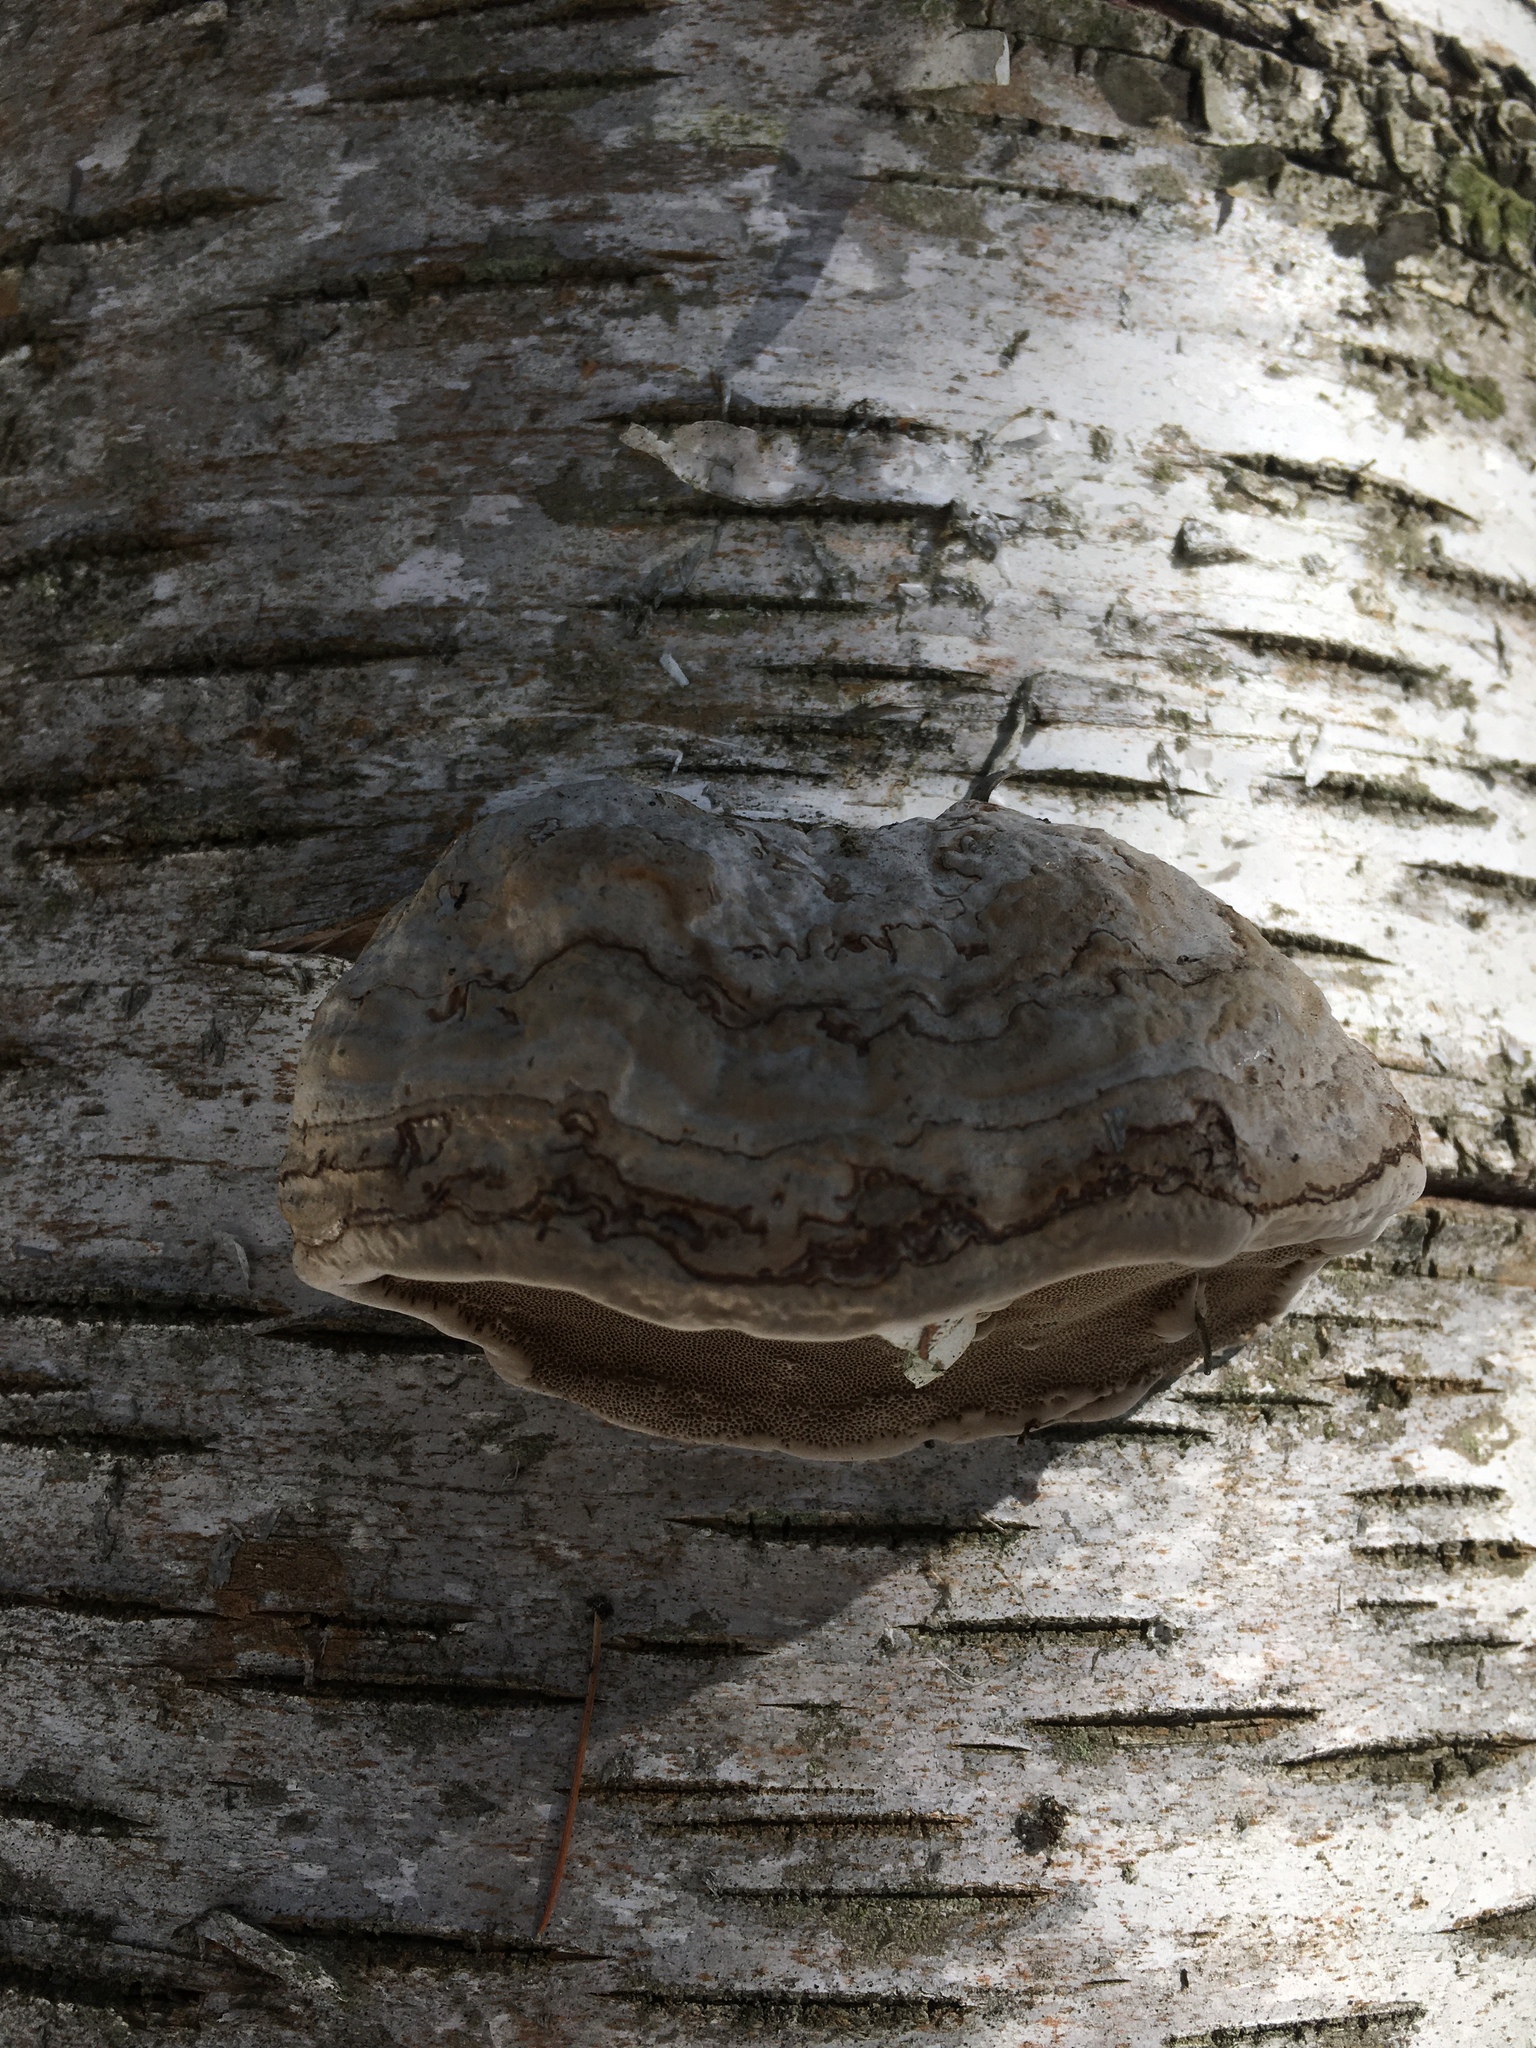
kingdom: Fungi
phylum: Basidiomycota
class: Agaricomycetes
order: Polyporales
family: Polyporaceae
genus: Fomes
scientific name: Fomes fomentarius
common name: Hoof fungus
